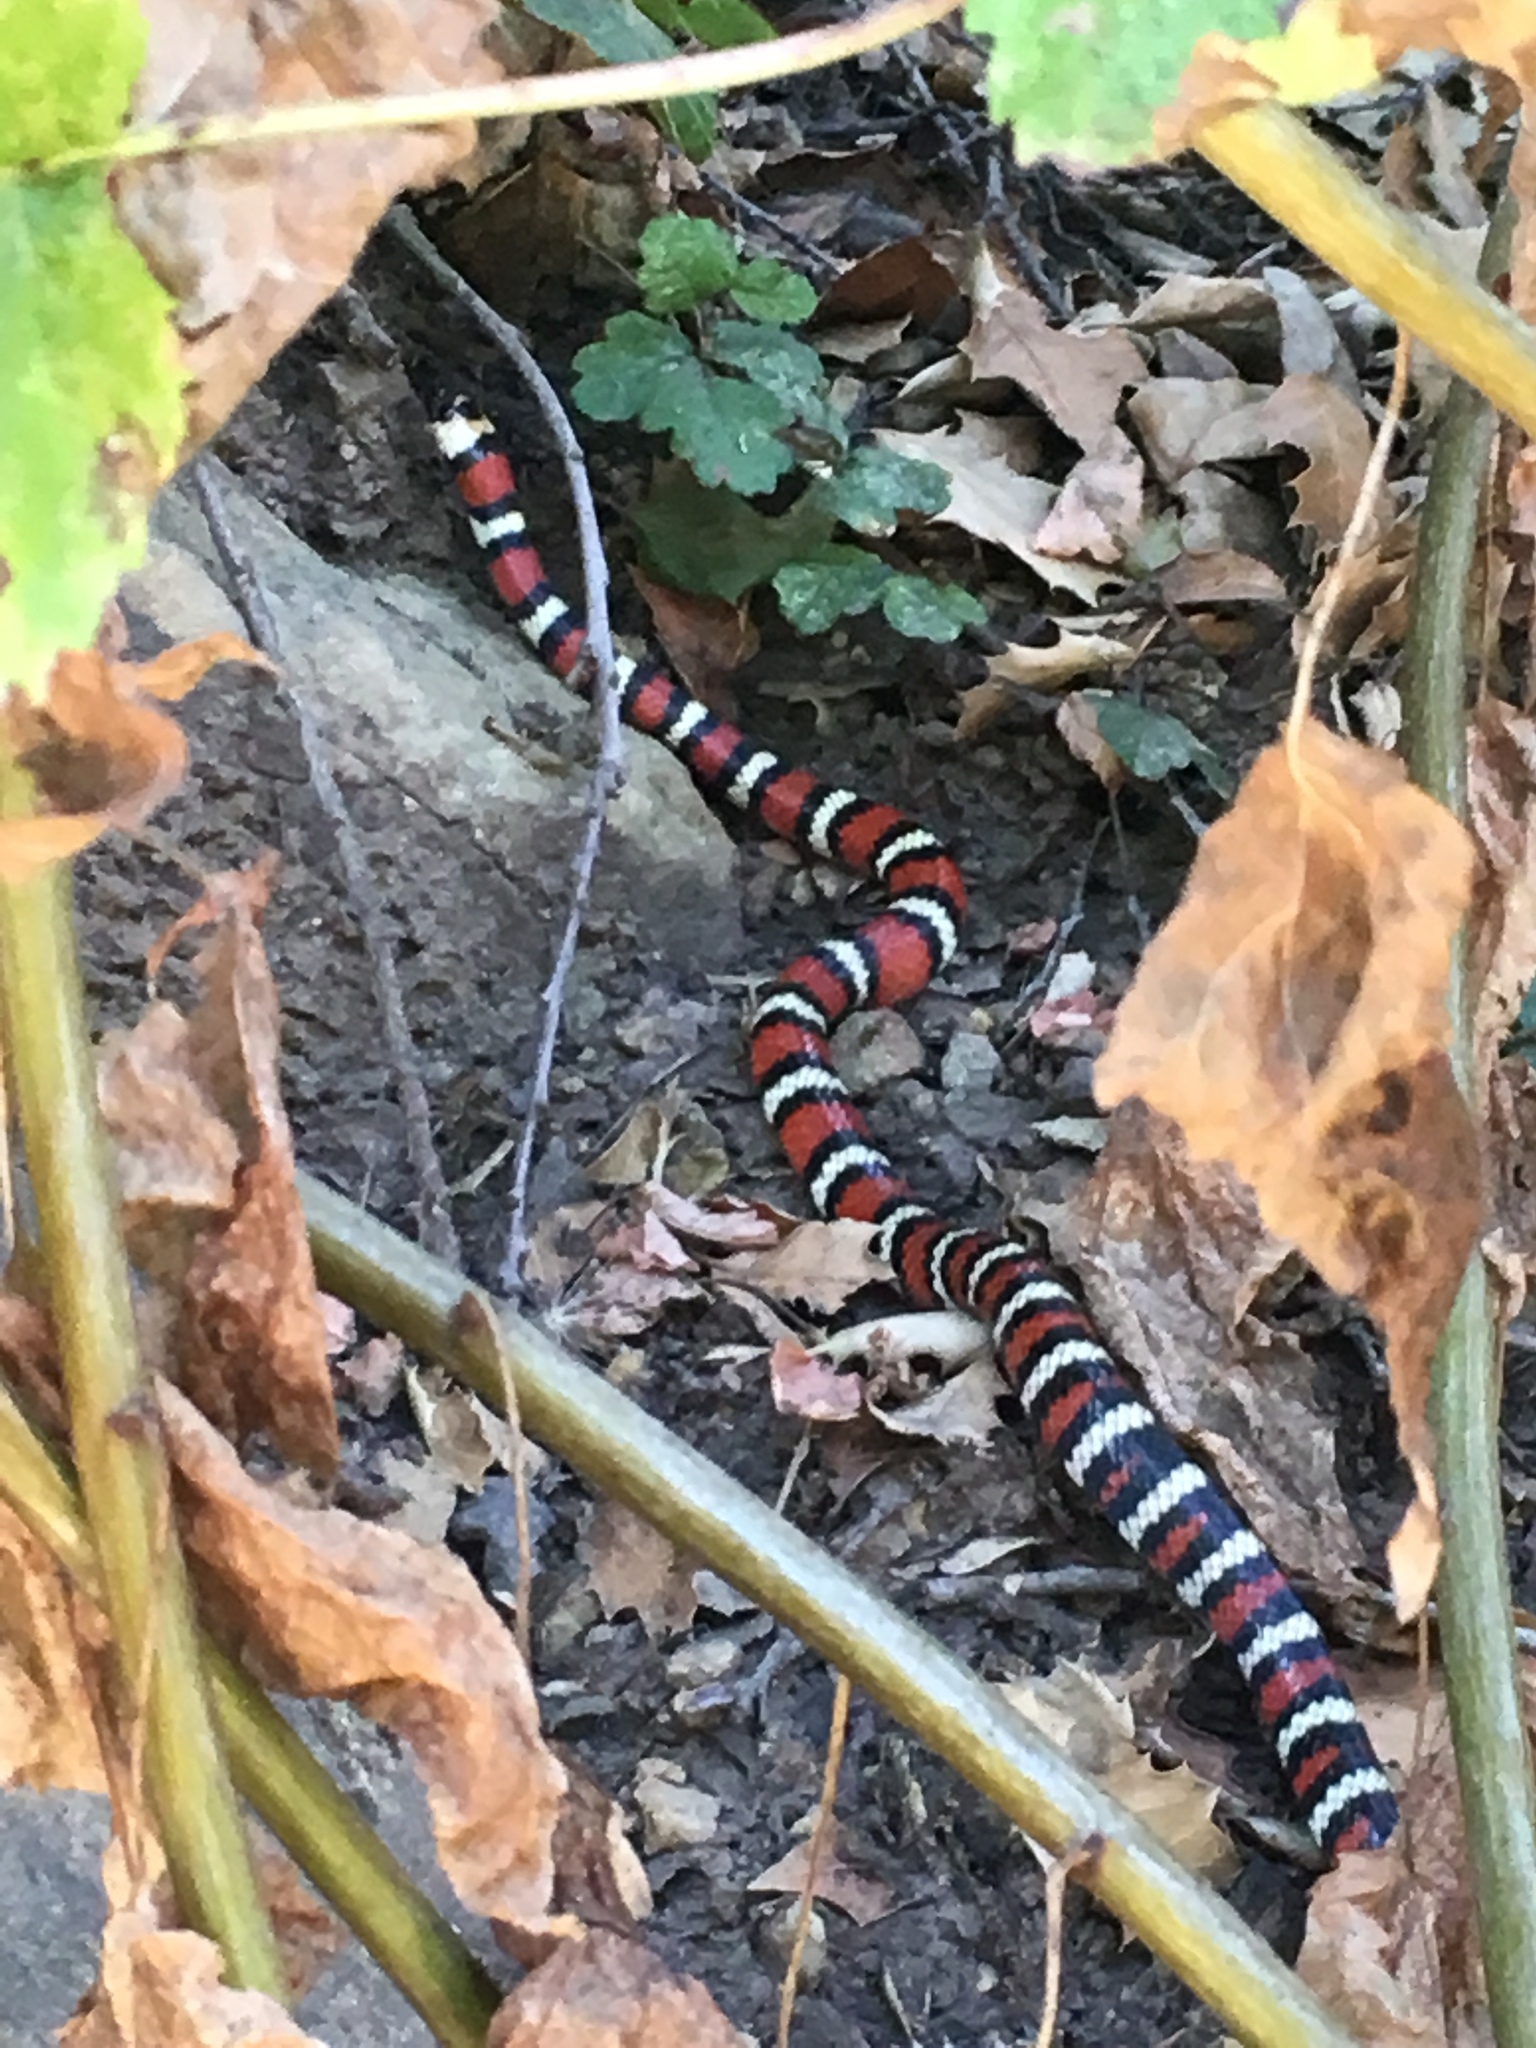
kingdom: Animalia
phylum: Chordata
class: Squamata
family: Colubridae
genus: Lampropeltis
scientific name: Lampropeltis zonata
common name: California mountain kingsnake
